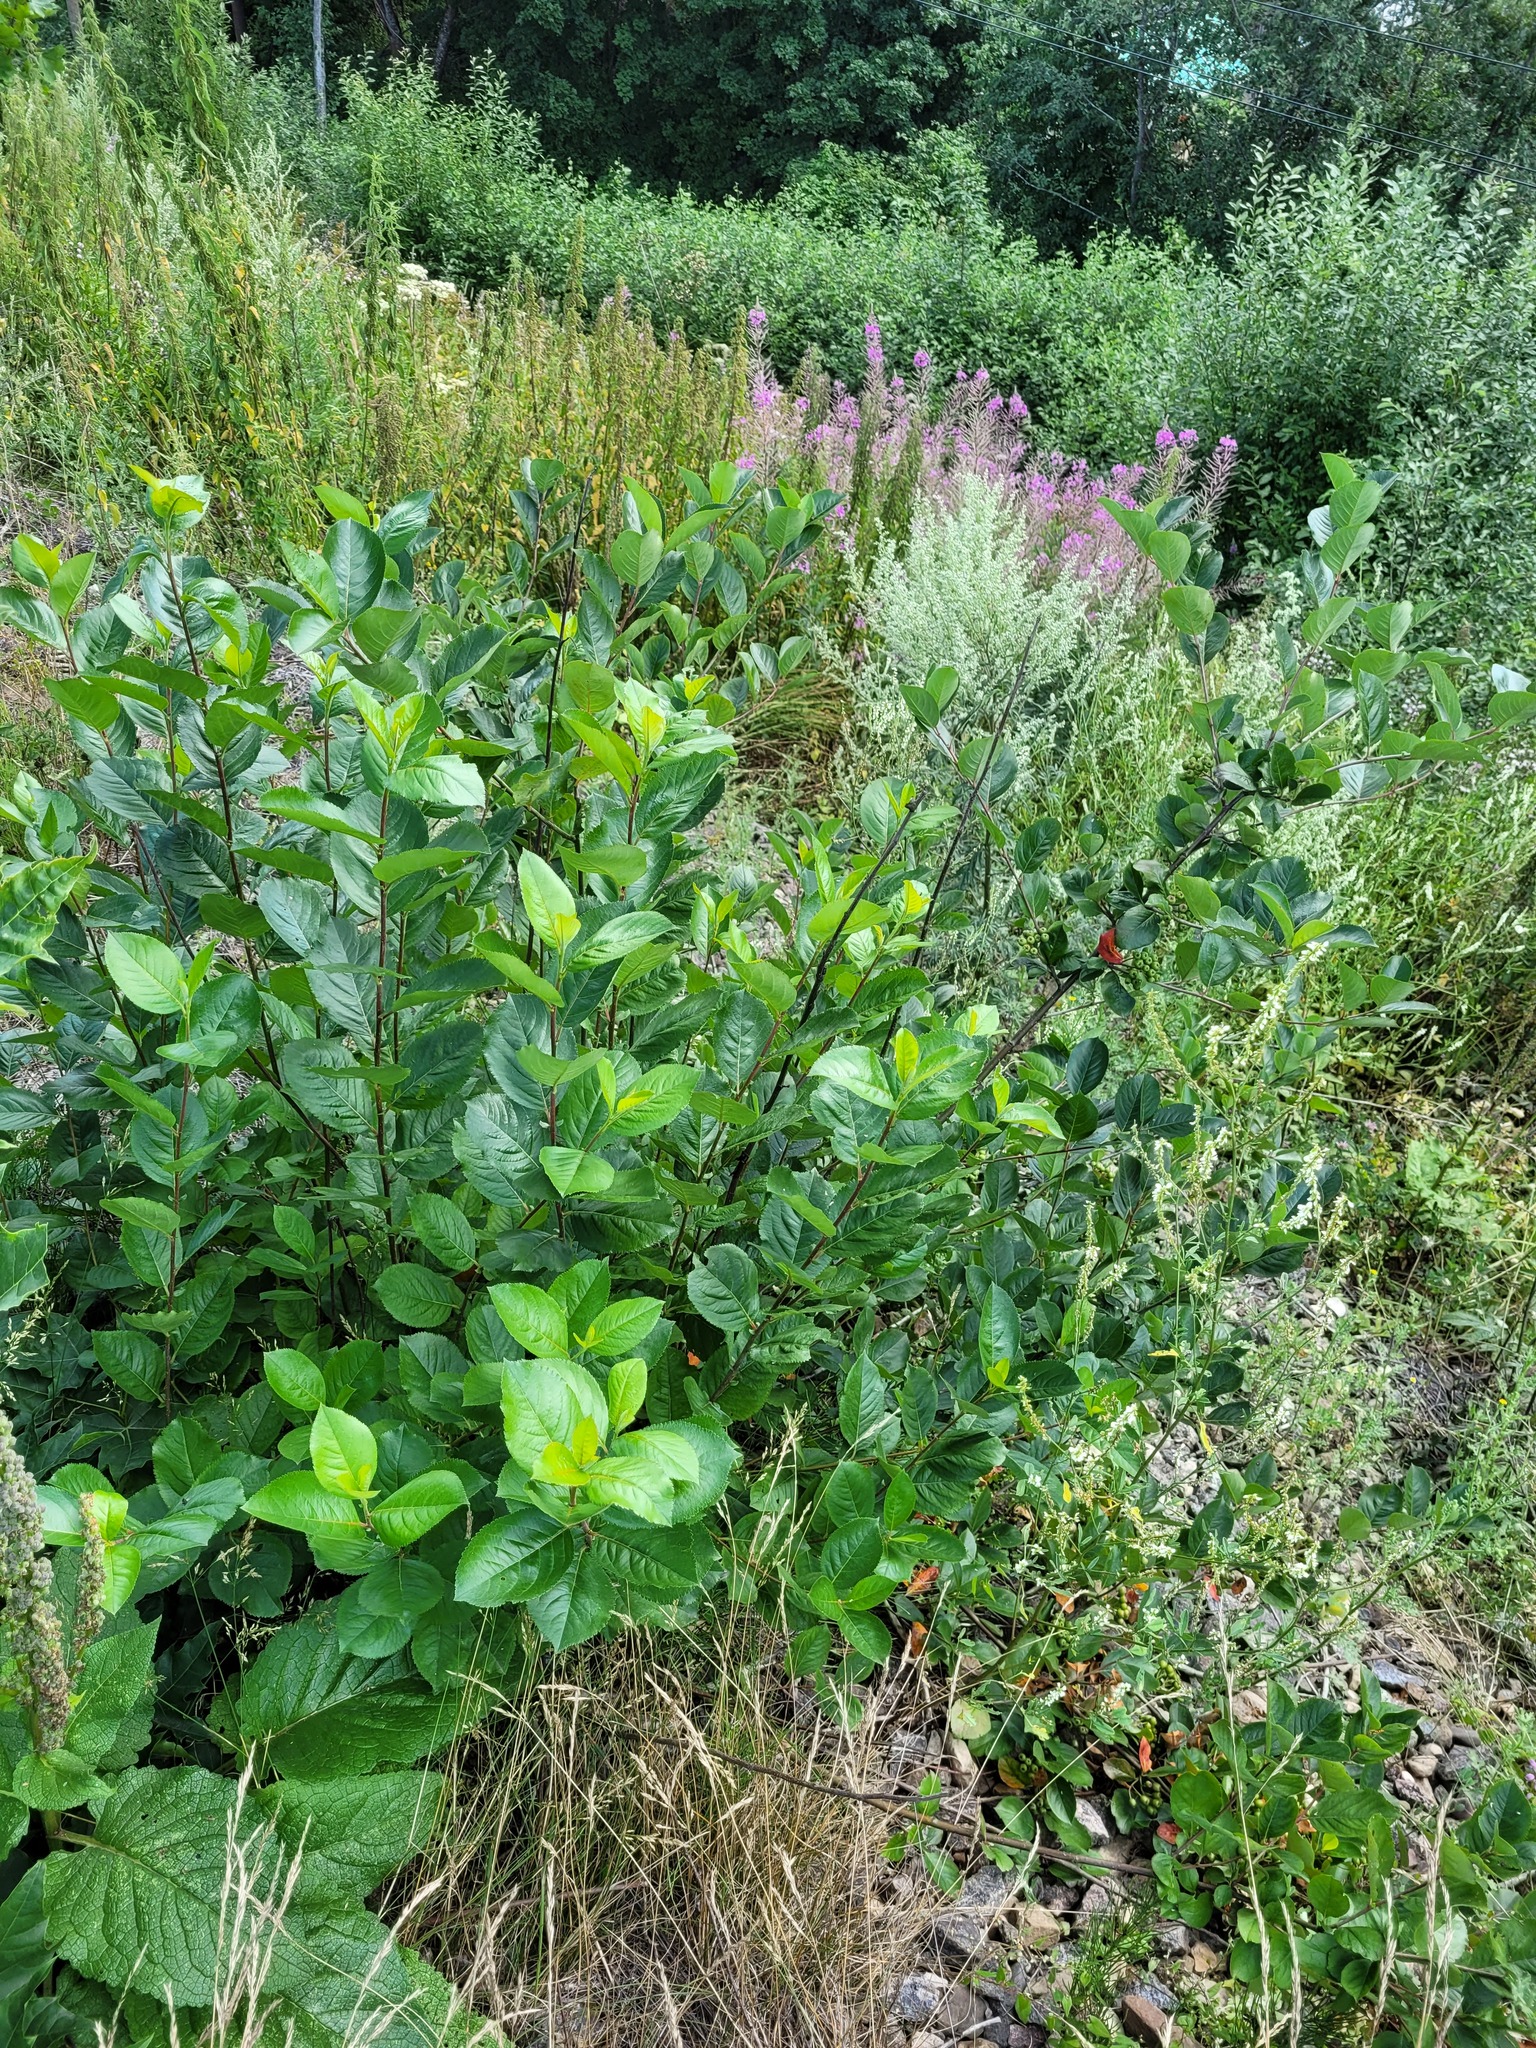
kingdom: Plantae
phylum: Tracheophyta
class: Magnoliopsida
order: Rosales
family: Rosaceae
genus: Sorbaronia
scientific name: Sorbaronia arsenii
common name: Arsène's mountain-ash
